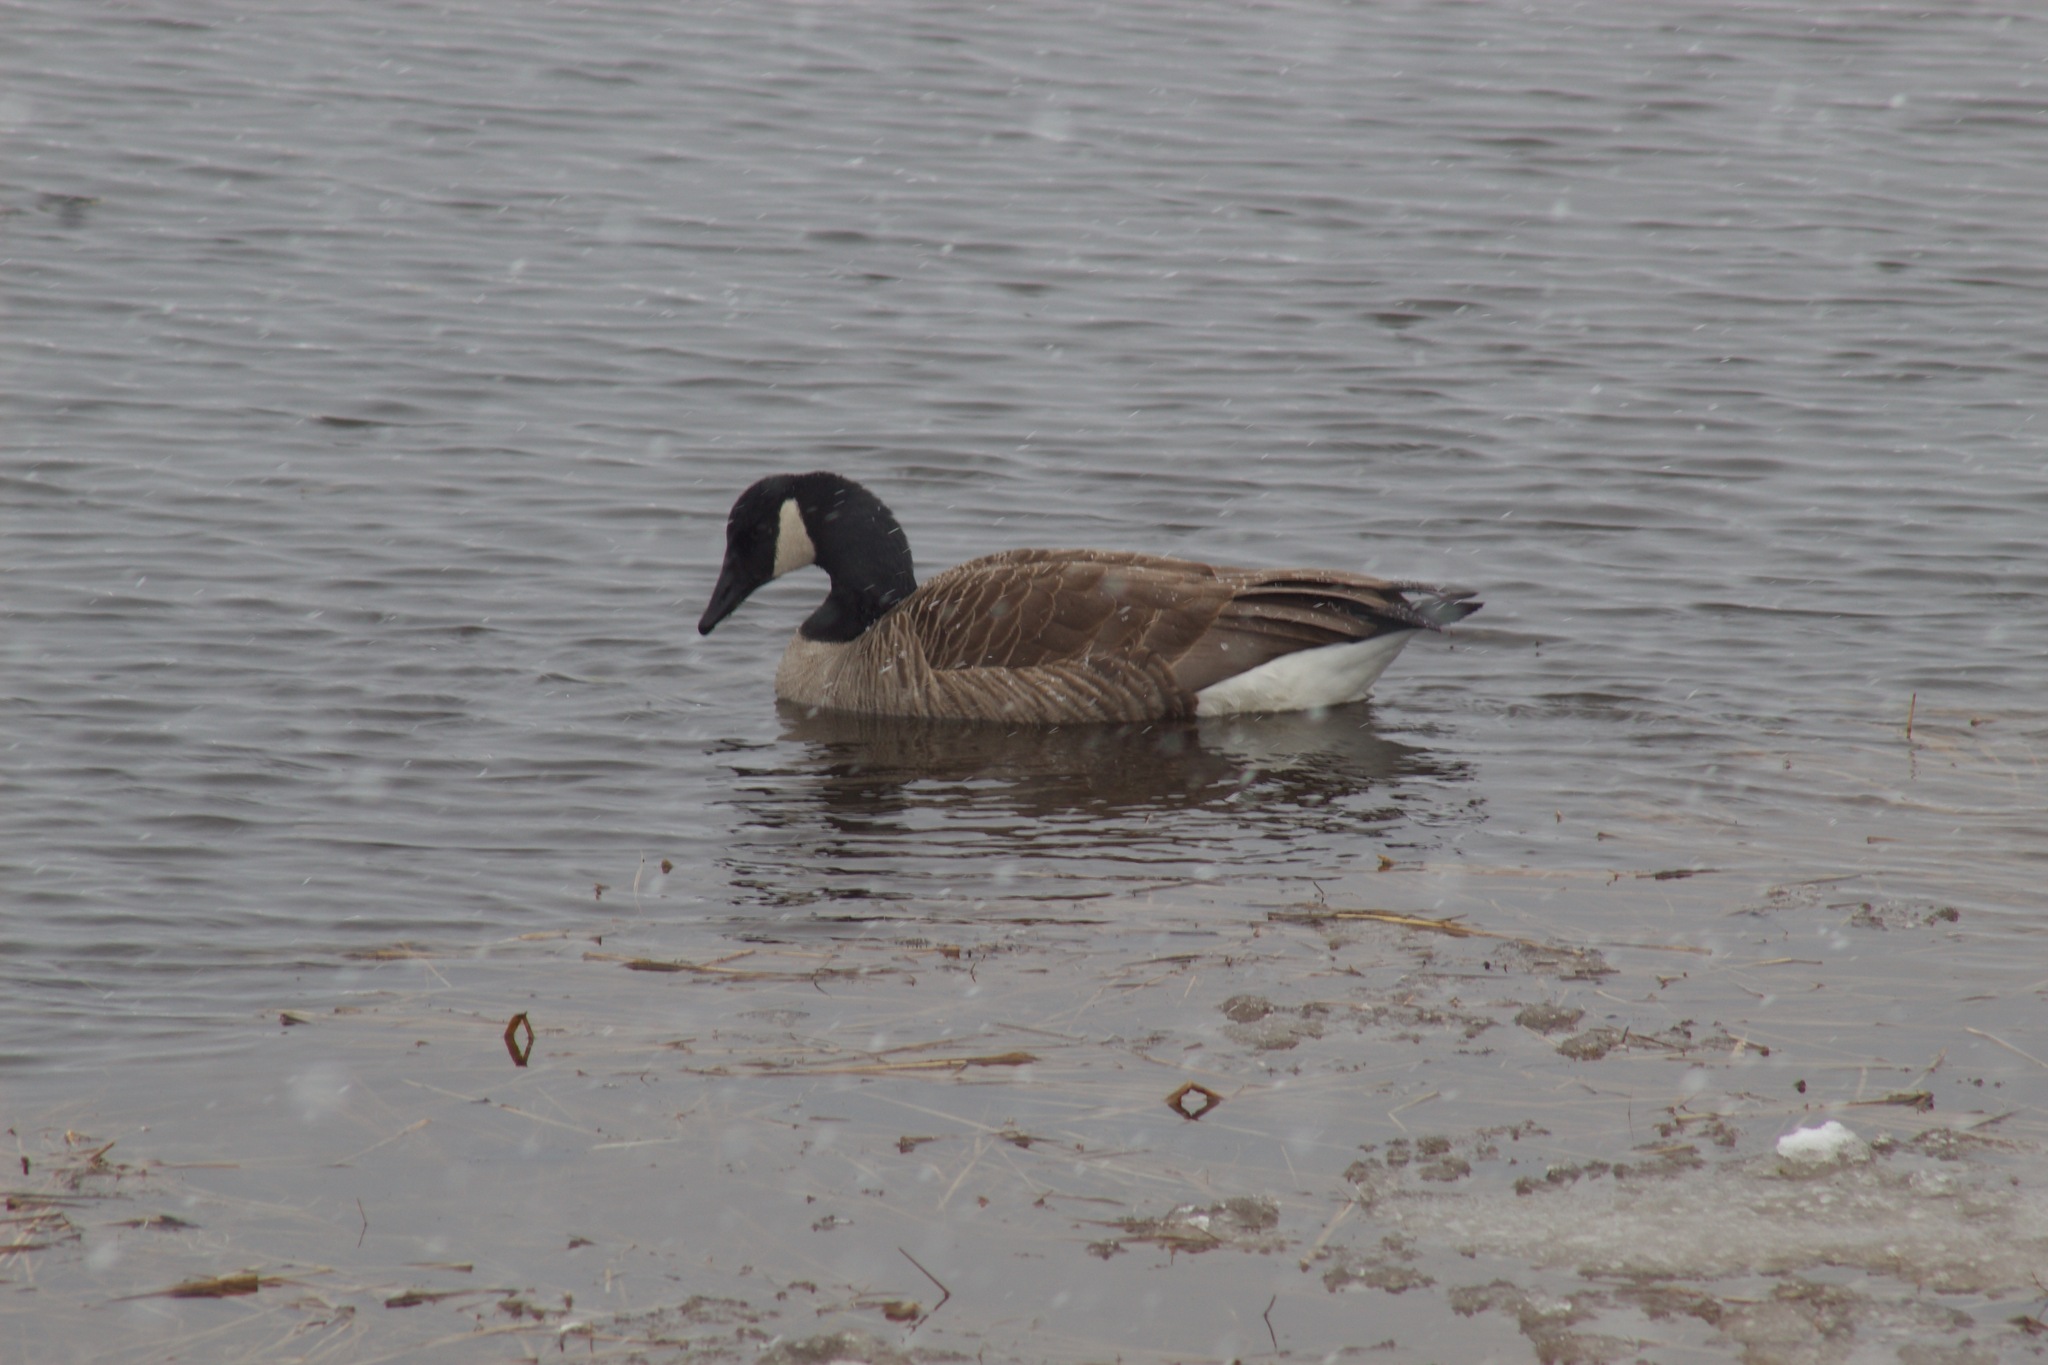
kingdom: Animalia
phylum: Chordata
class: Aves
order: Anseriformes
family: Anatidae
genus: Branta
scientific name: Branta canadensis
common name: Canada goose
